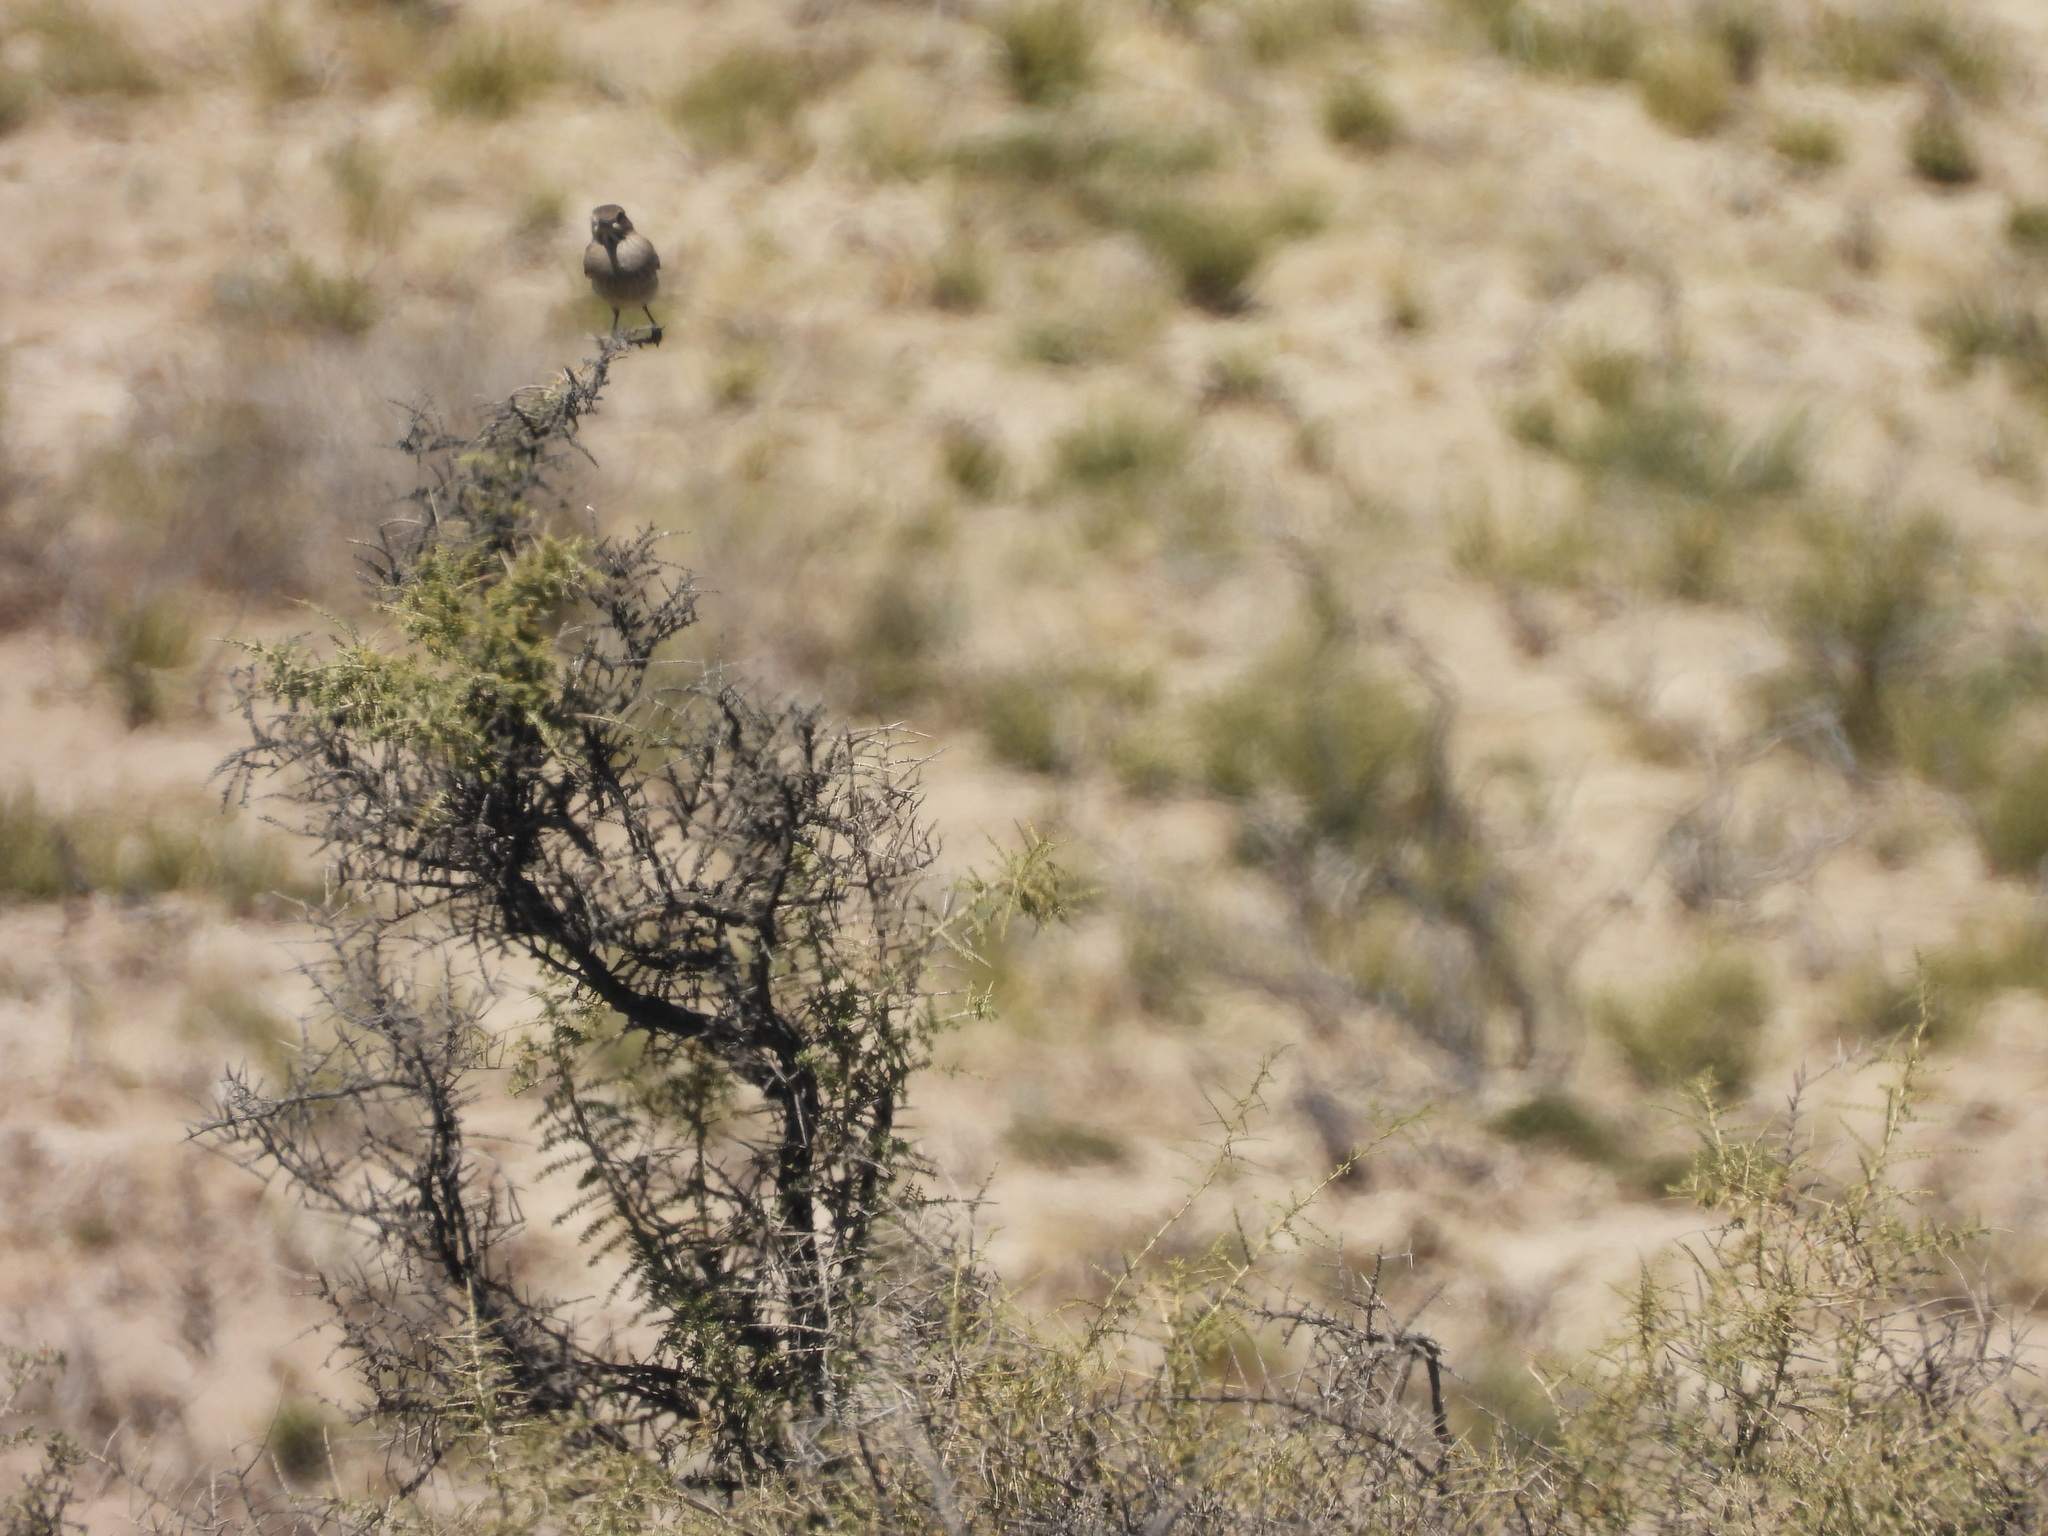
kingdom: Animalia
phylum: Chordata
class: Aves
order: Passeriformes
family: Tyrannidae
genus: Agriornis
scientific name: Agriornis micropterus
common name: Grey-bellied shrike-tyrant
